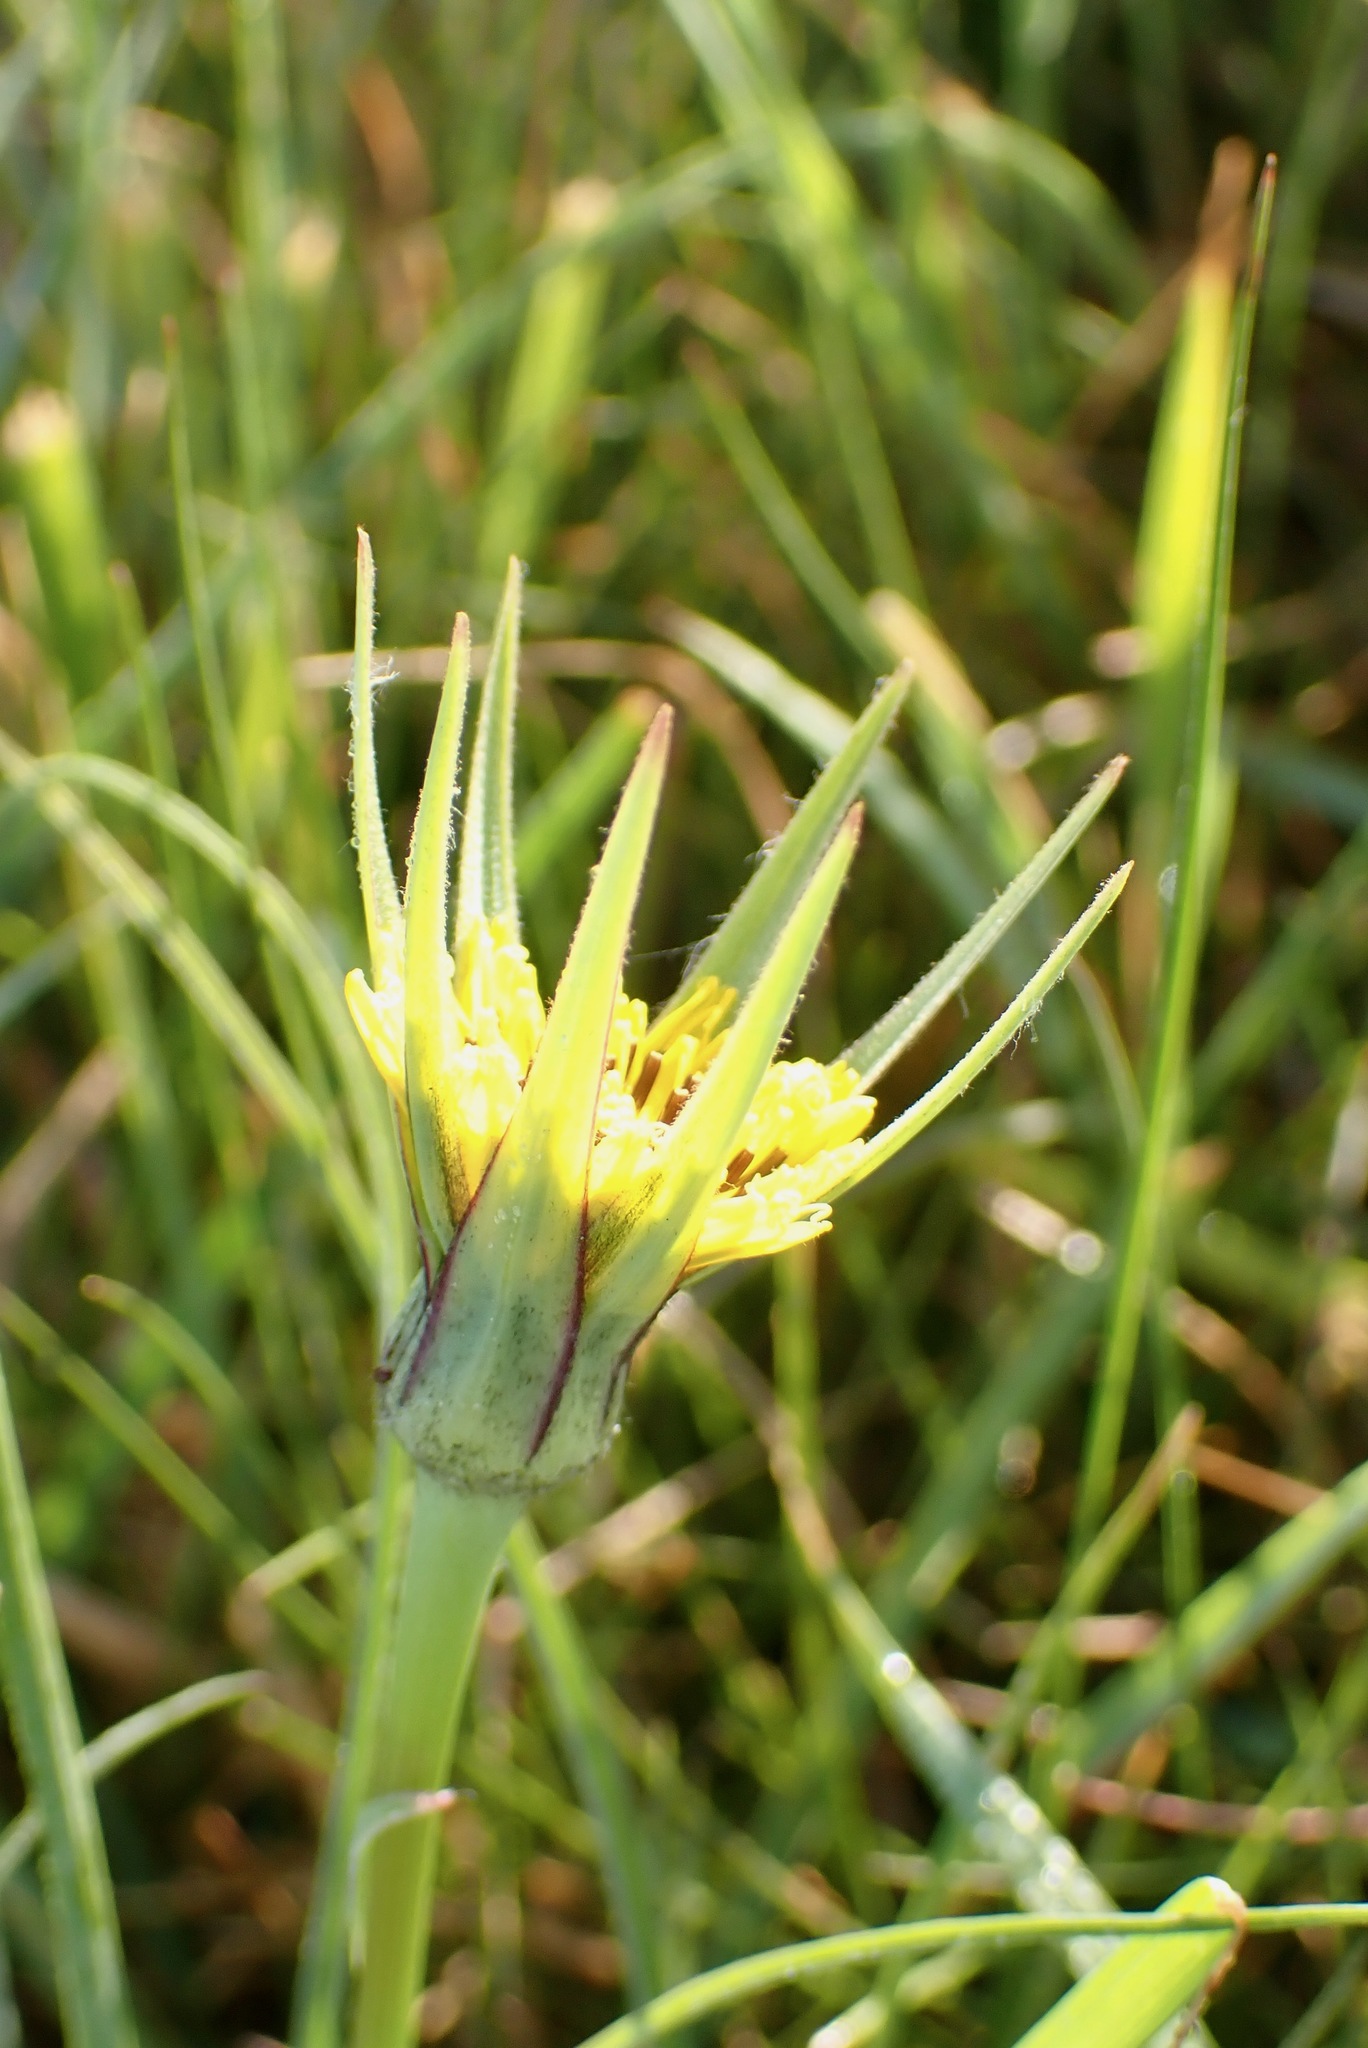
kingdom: Plantae
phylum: Tracheophyta
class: Magnoliopsida
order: Asterales
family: Asteraceae
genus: Tragopogon
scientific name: Tragopogon pratensis
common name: Goat's-beard
